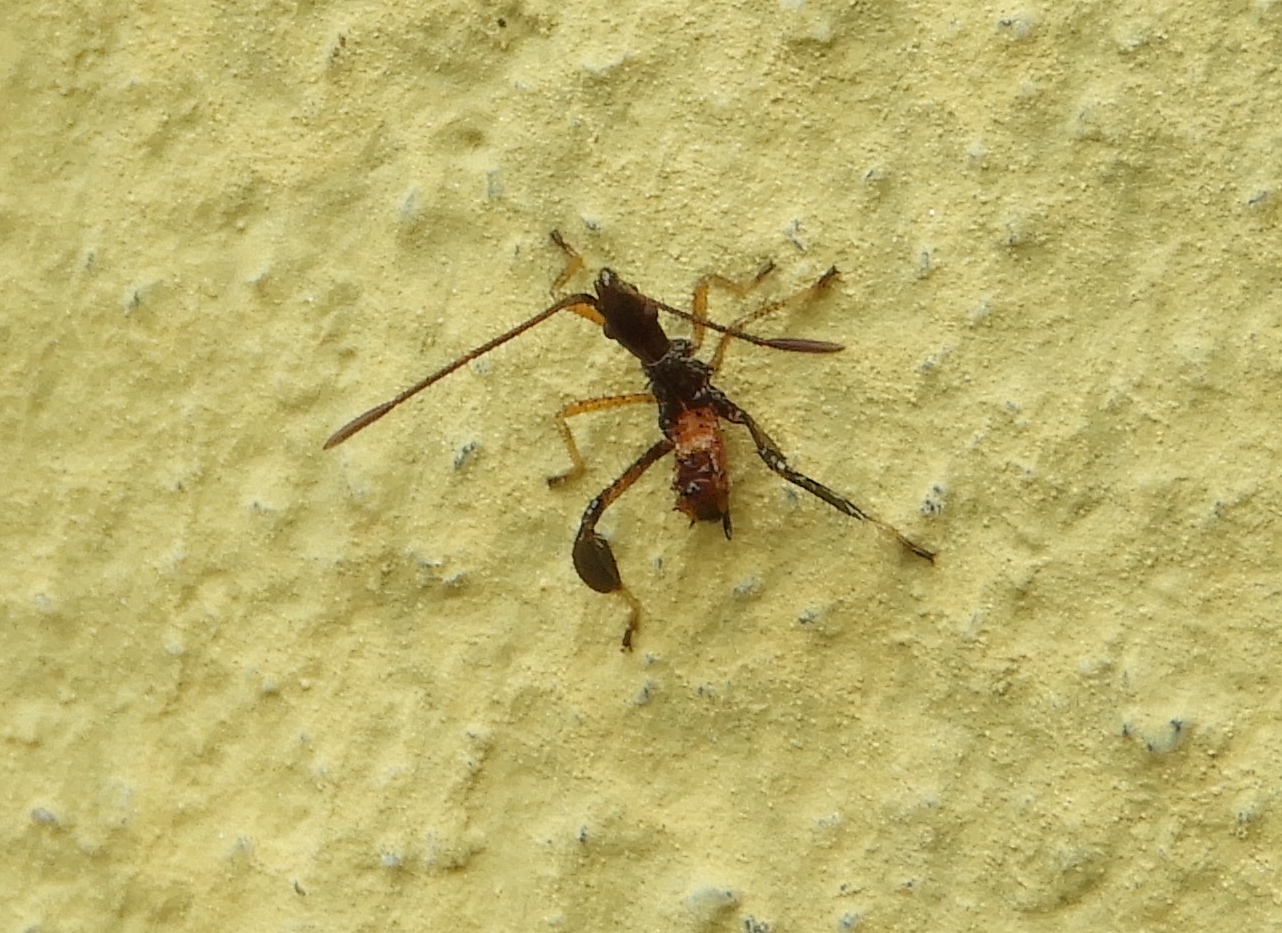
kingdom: Animalia
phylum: Arthropoda
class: Insecta
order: Hemiptera
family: Coreidae
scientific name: Coreidae
